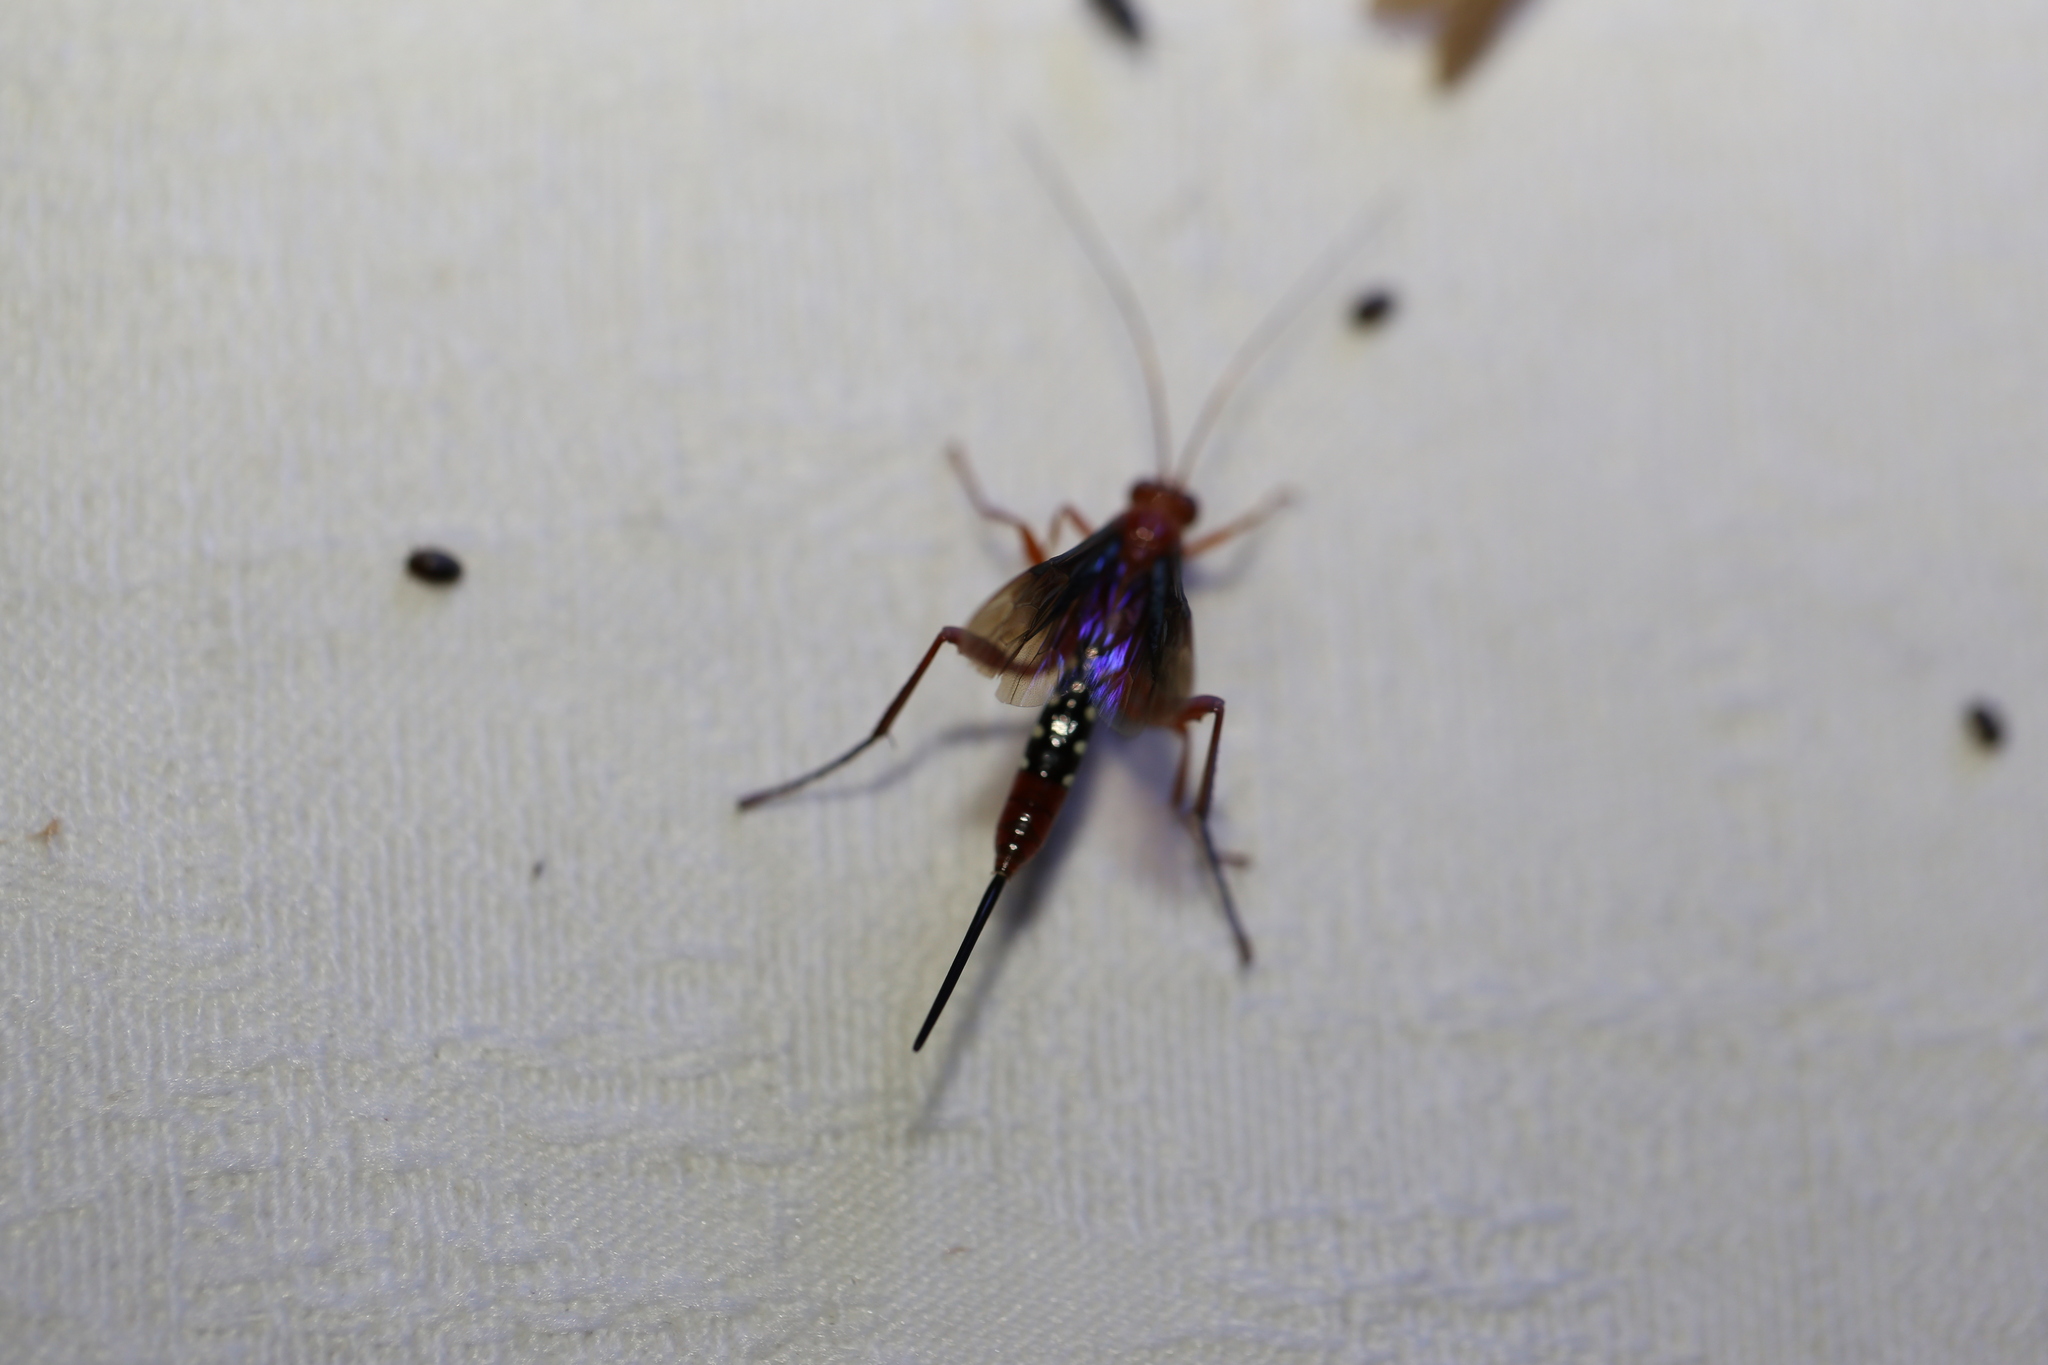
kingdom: Animalia
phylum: Arthropoda
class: Insecta
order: Hymenoptera
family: Ichneumonidae
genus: Lissopimpla
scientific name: Lissopimpla excelsa
